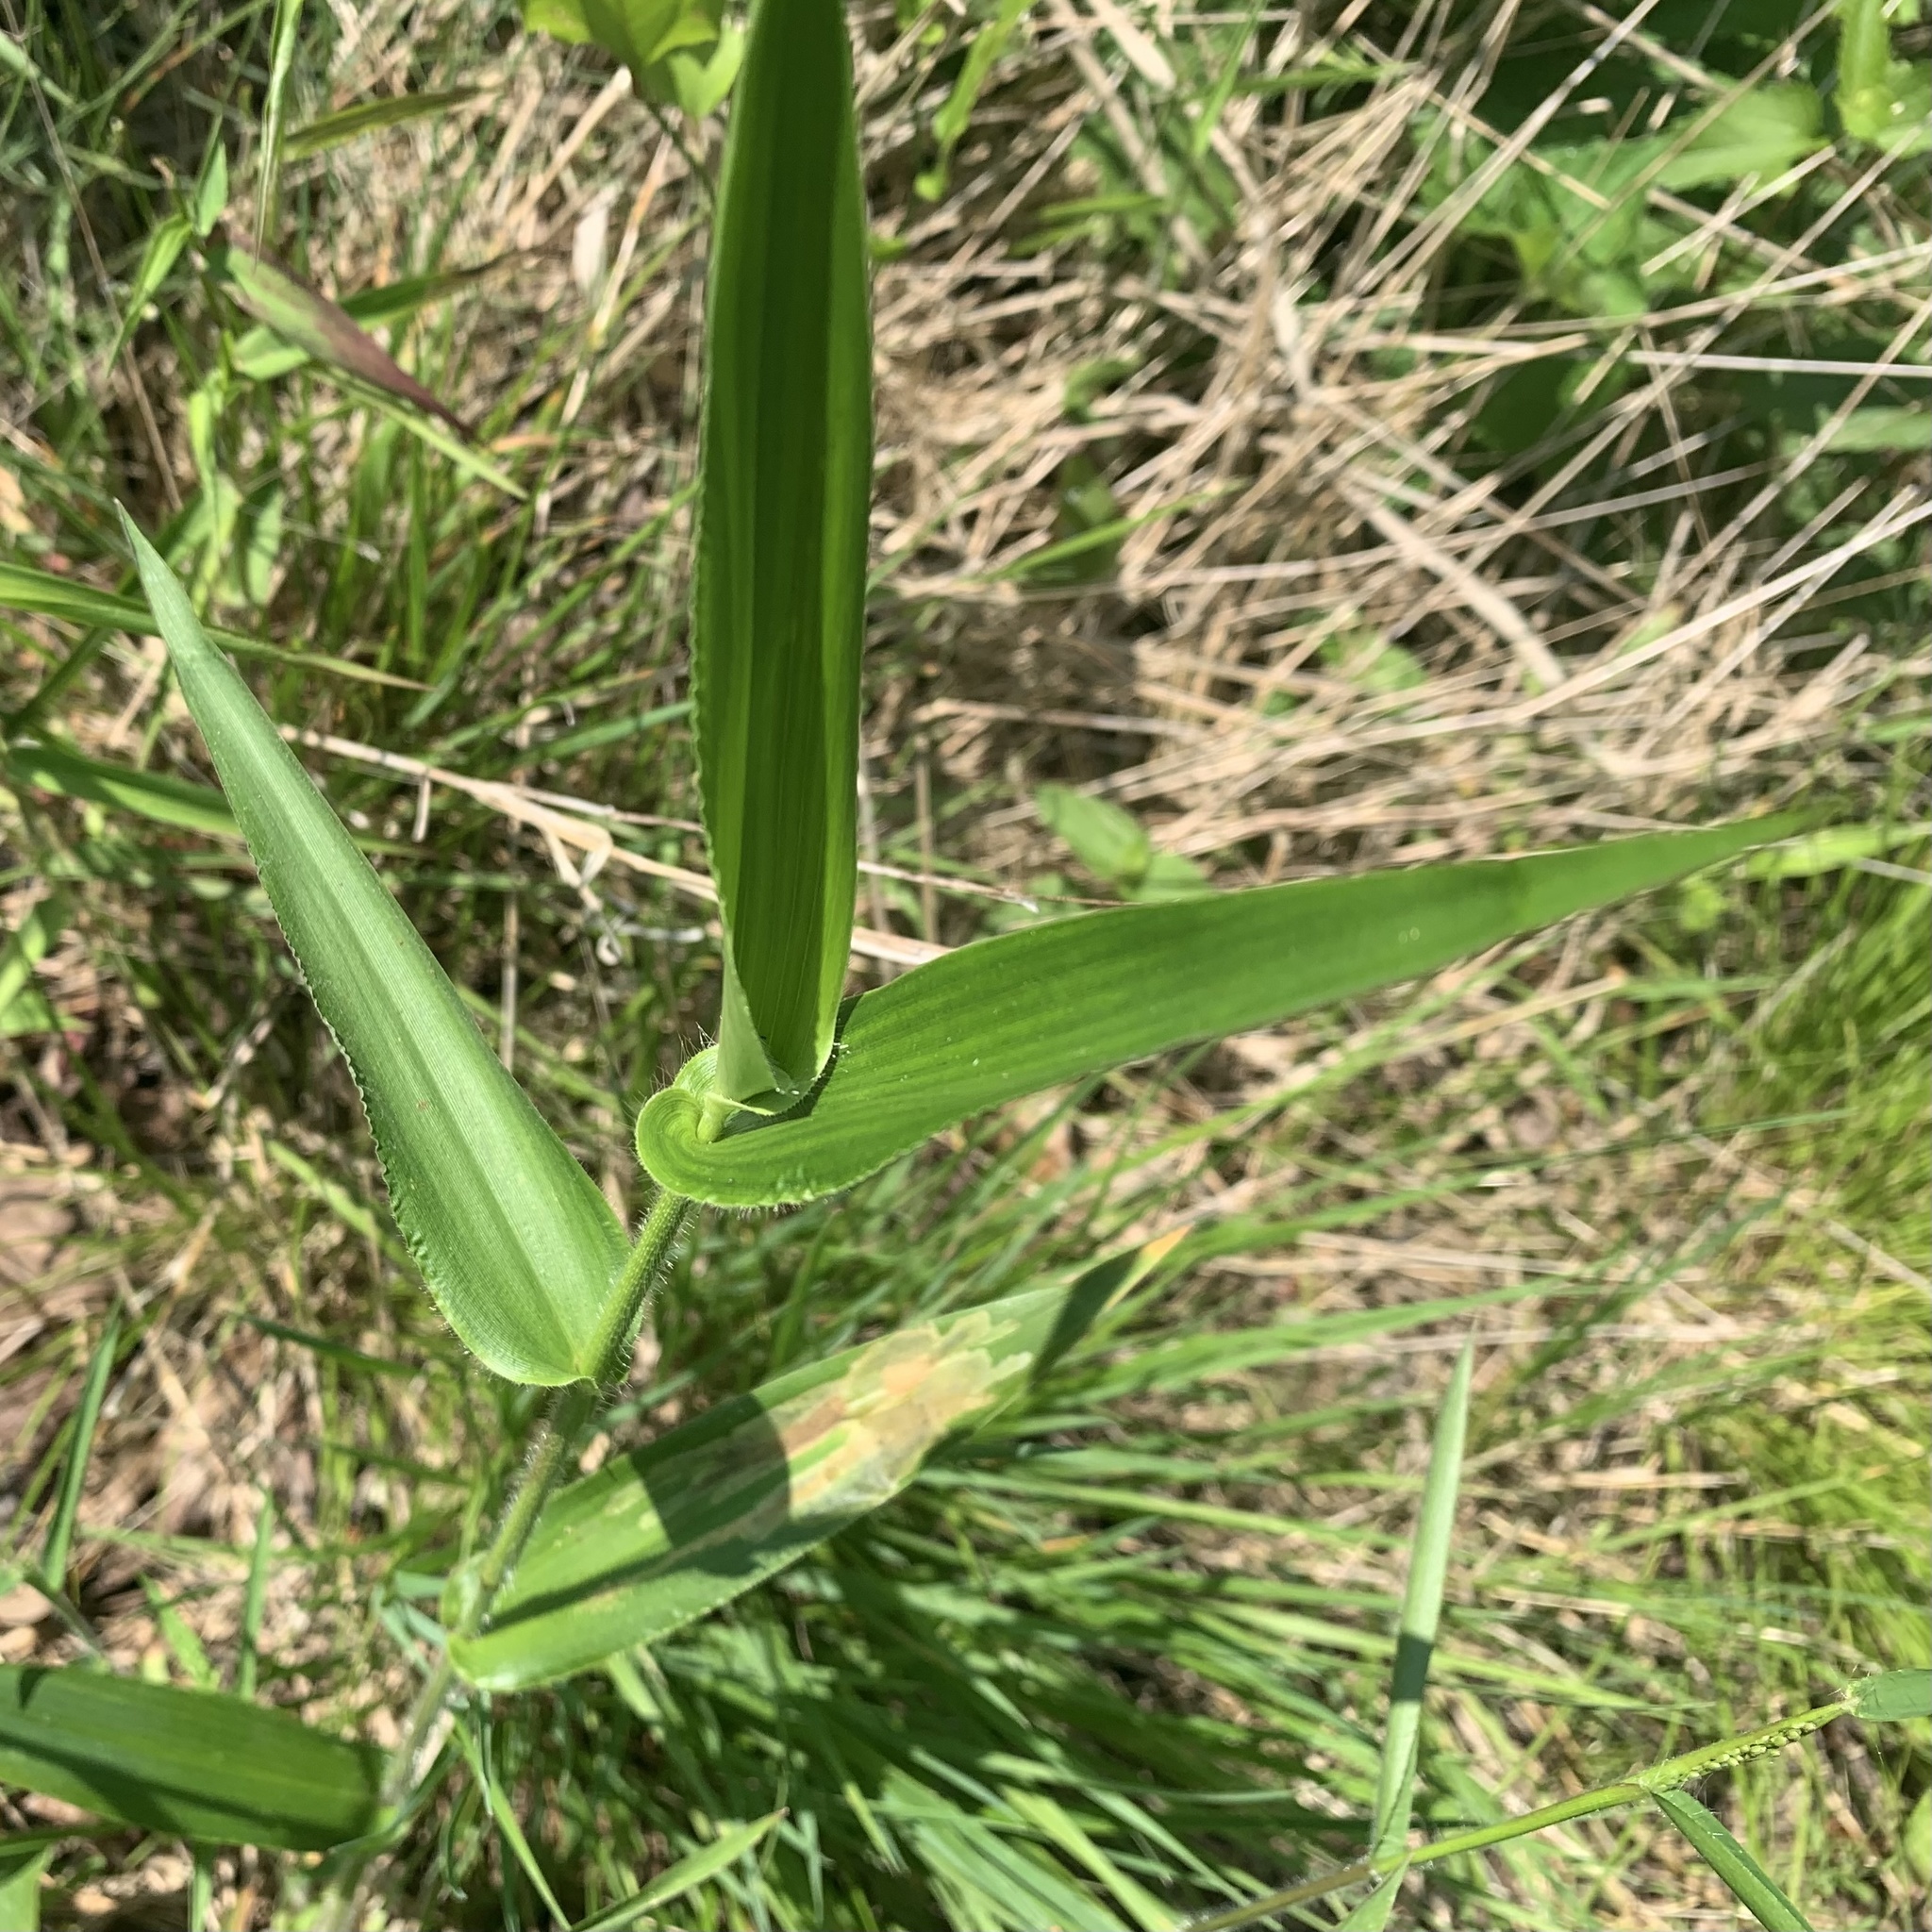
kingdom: Plantae
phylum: Tracheophyta
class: Liliopsida
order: Poales
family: Poaceae
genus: Dichanthelium
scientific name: Dichanthelium clandestinum
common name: Deer-tongue grass
